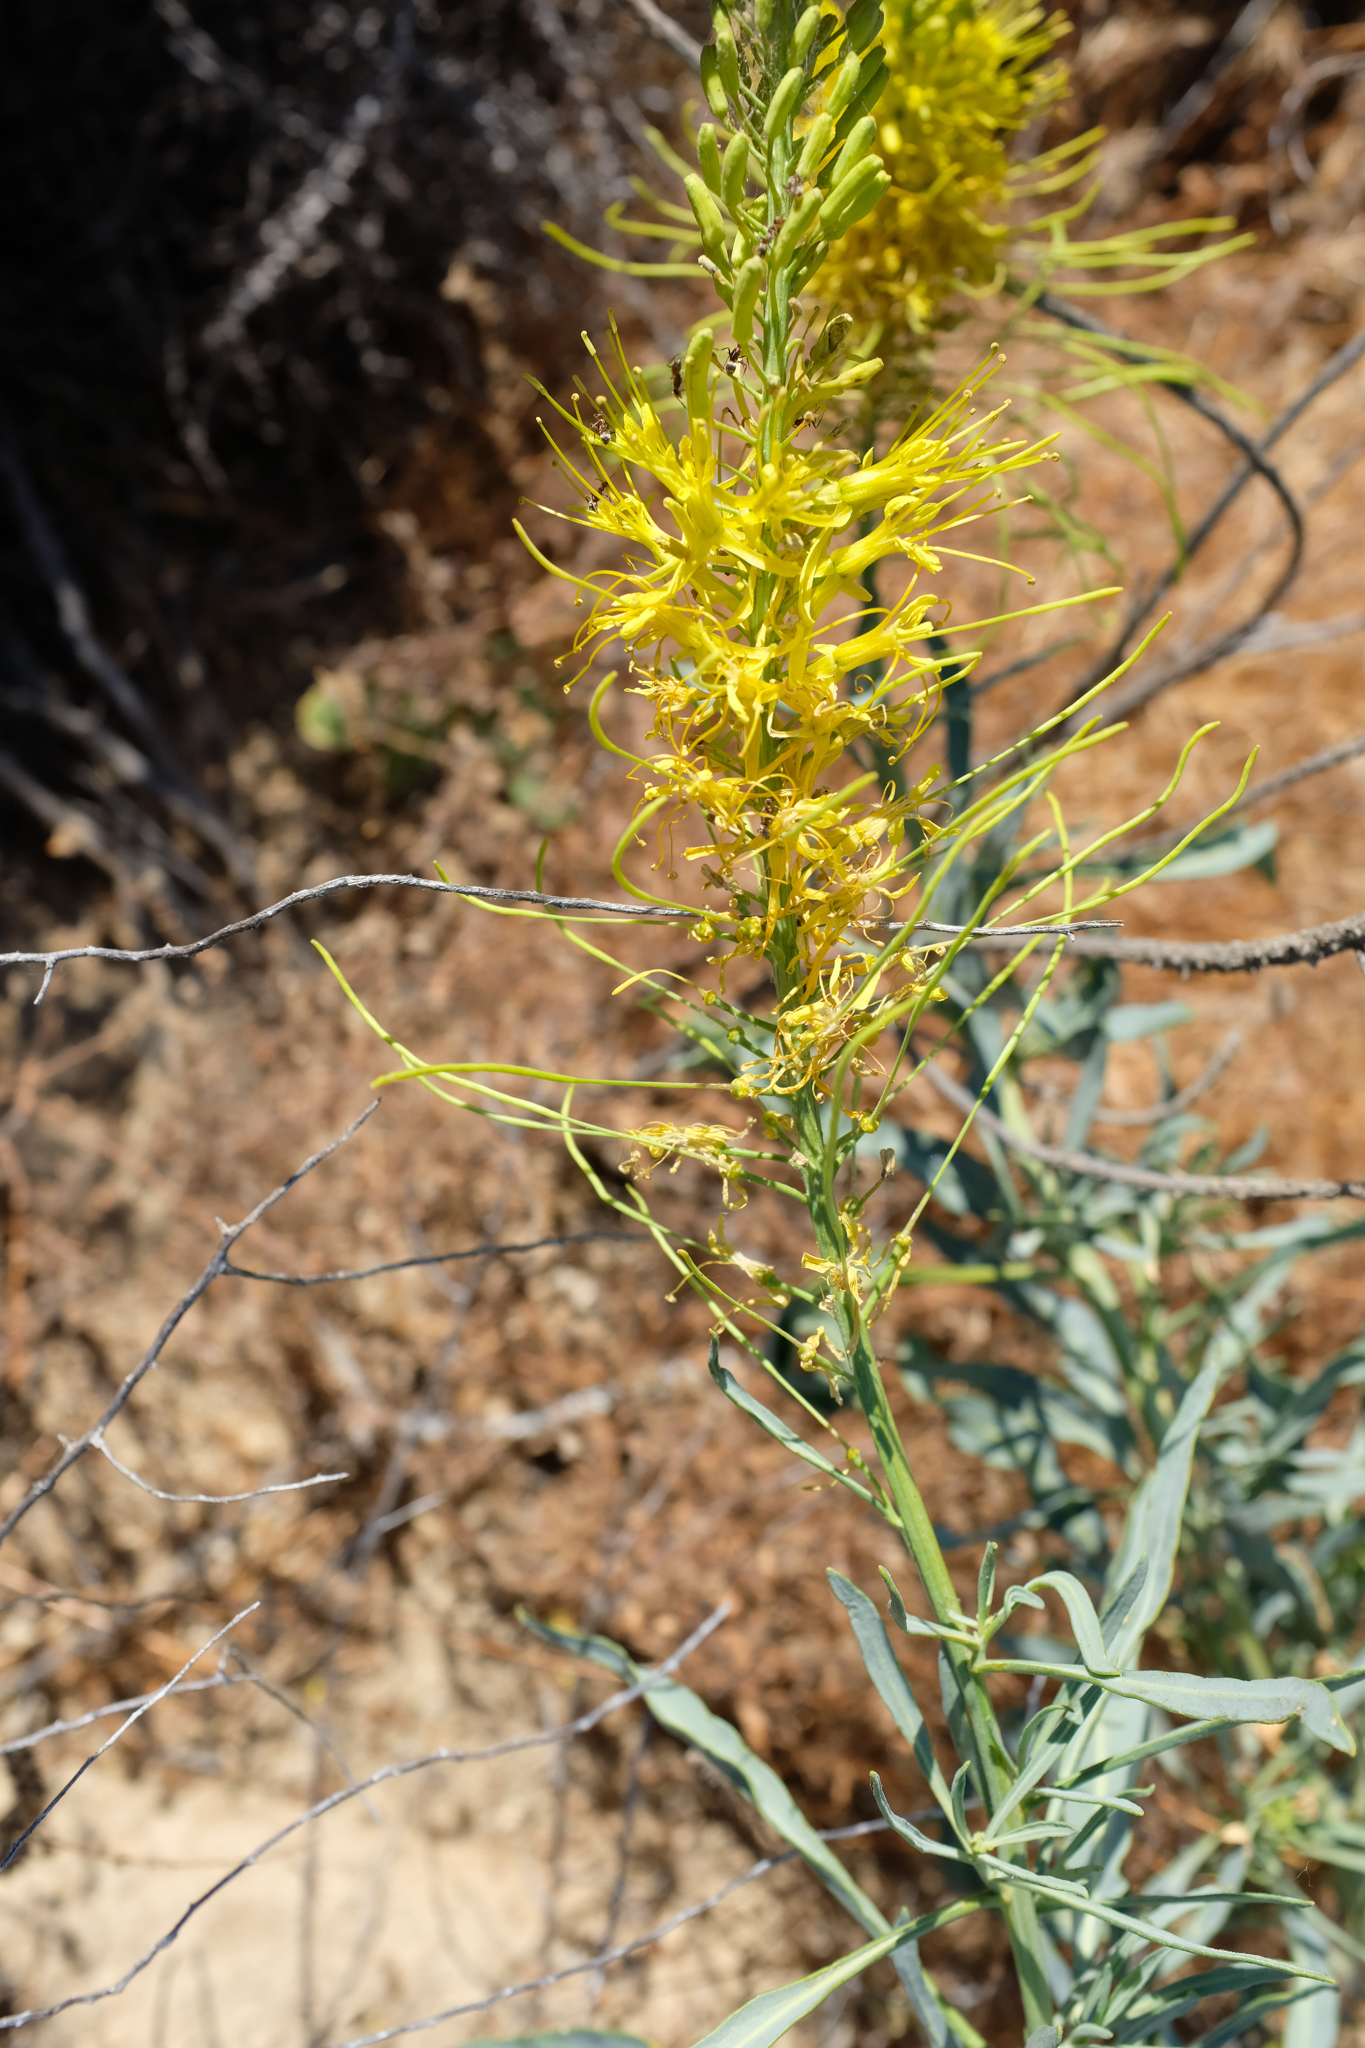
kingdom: Plantae
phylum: Tracheophyta
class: Magnoliopsida
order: Brassicales
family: Brassicaceae
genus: Stanleya
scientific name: Stanleya pinnata
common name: Prince's-plume
